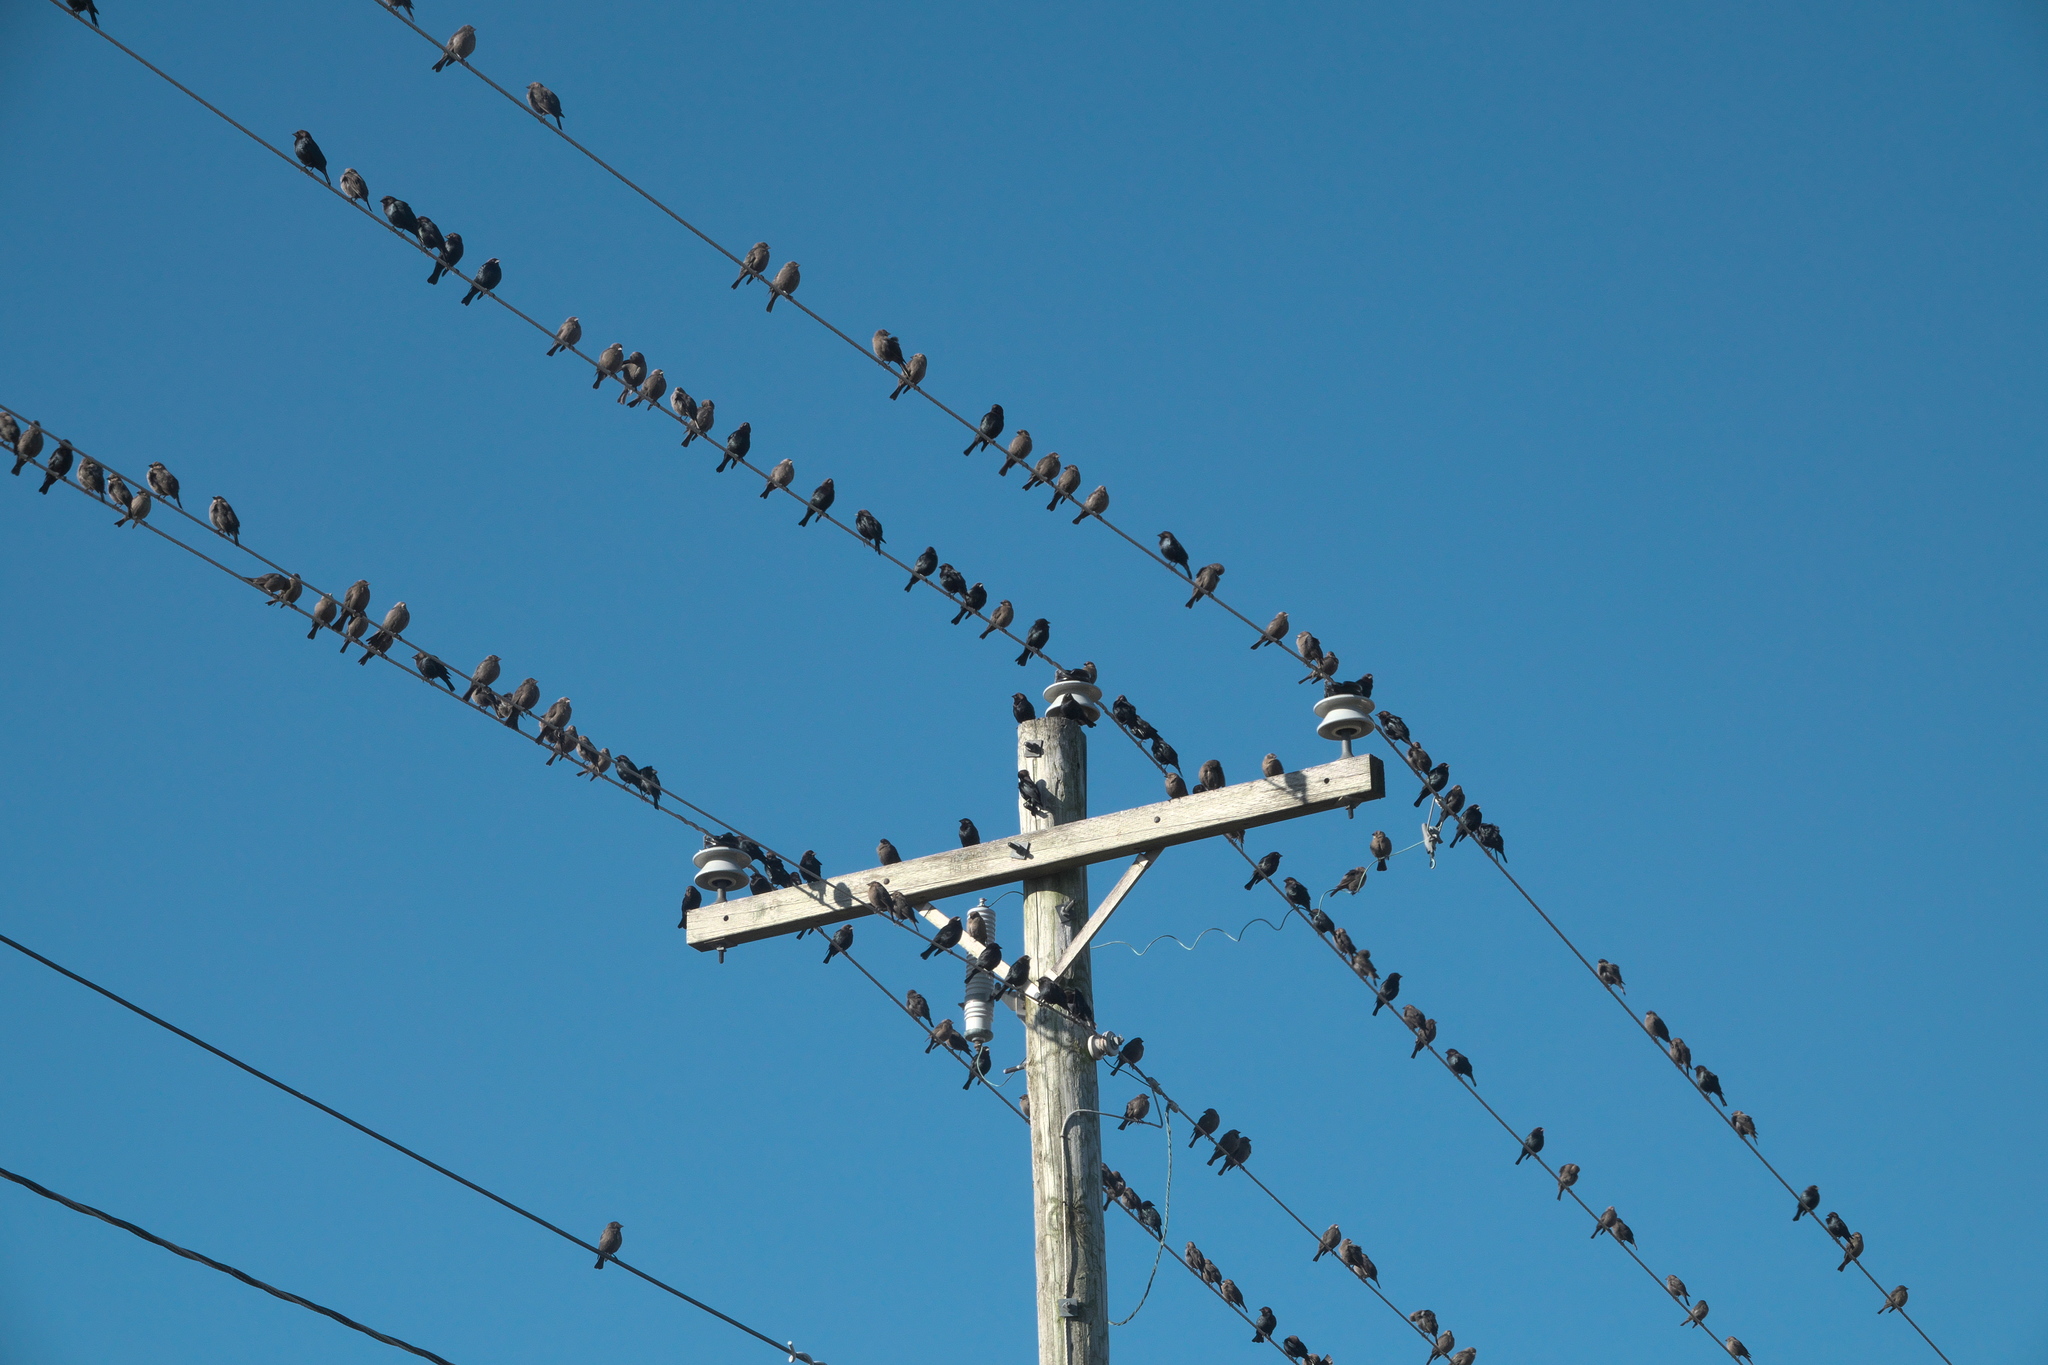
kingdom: Animalia
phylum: Chordata
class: Aves
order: Passeriformes
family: Passeridae
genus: Passer
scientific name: Passer domesticus
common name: House sparrow
